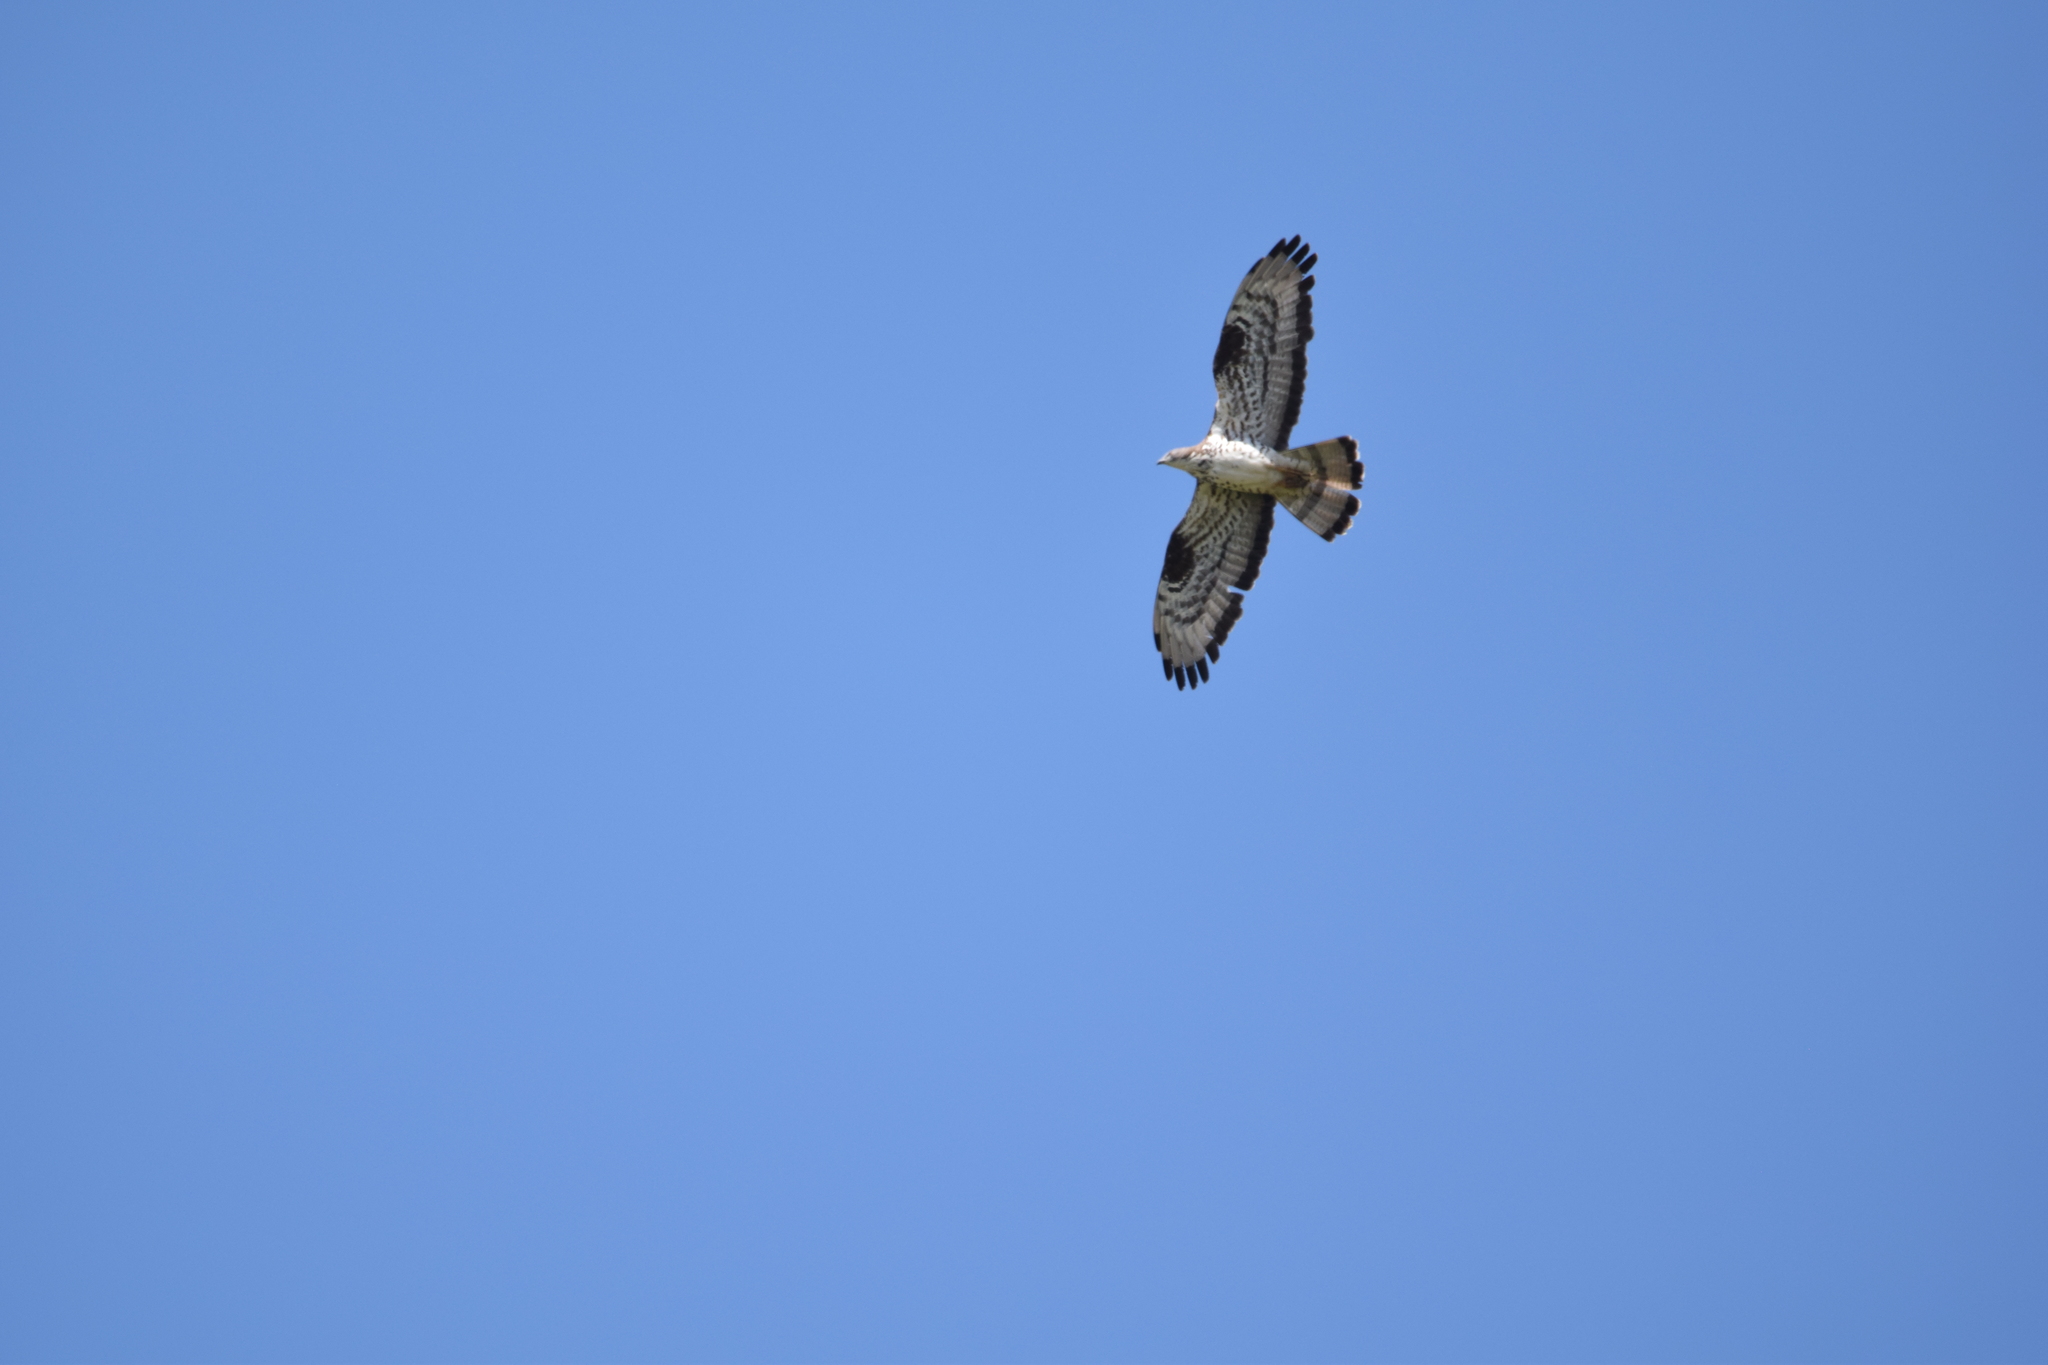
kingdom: Animalia
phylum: Chordata
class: Aves
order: Accipitriformes
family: Accipitridae
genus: Pernis
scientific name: Pernis apivorus
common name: European honey buzzard
